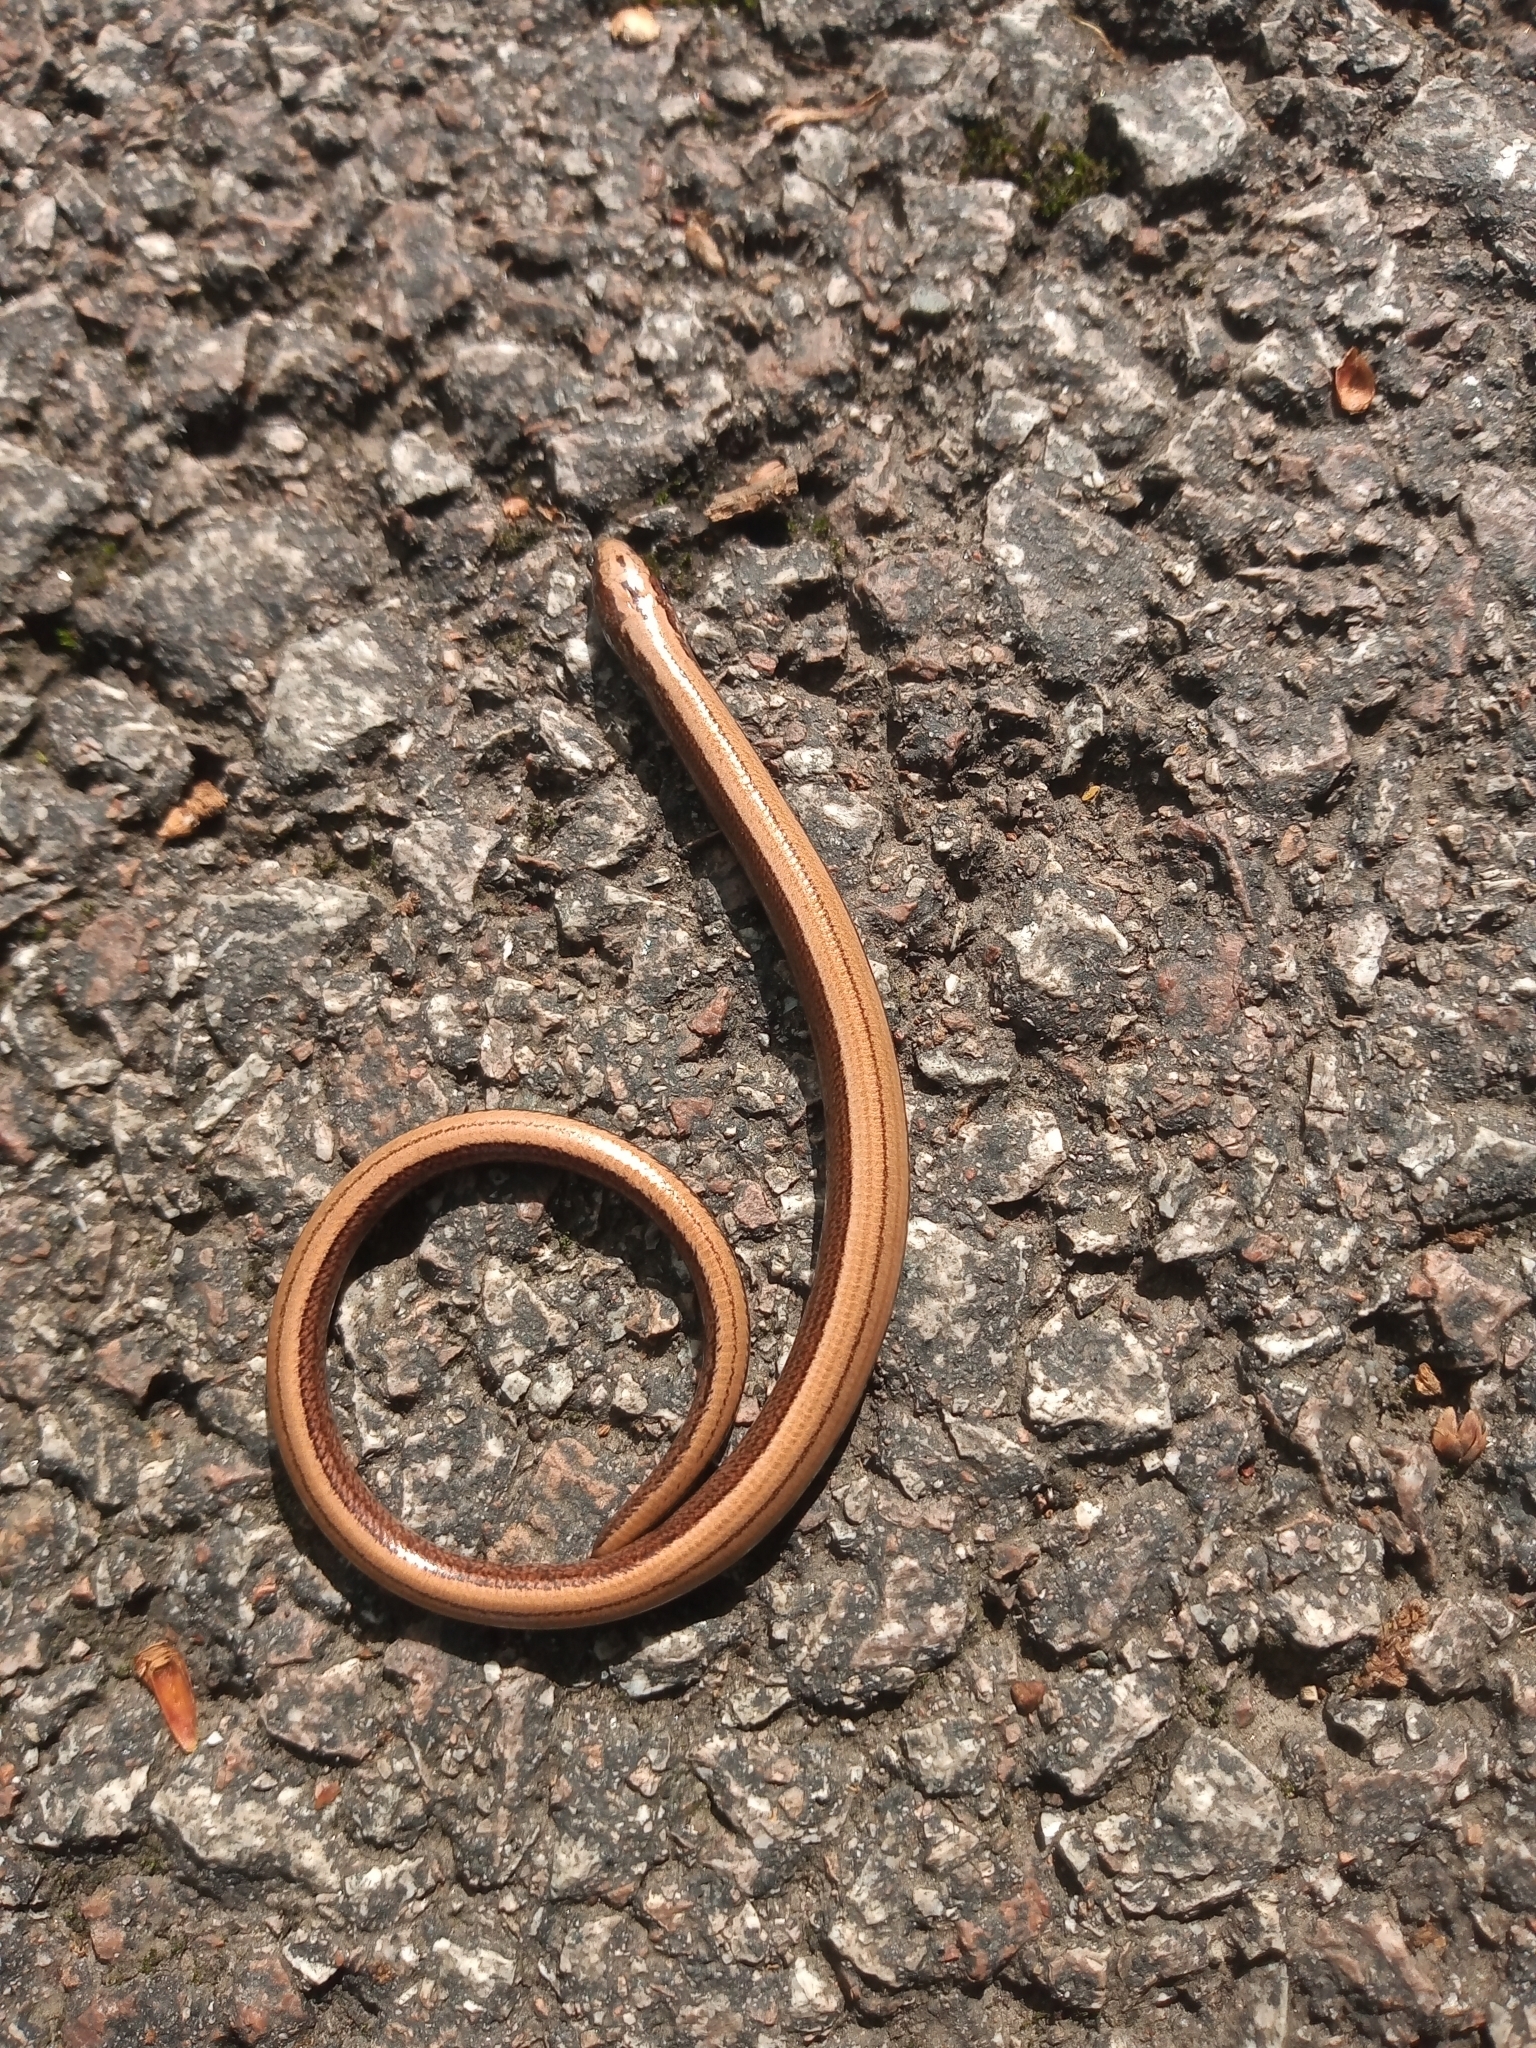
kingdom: Animalia
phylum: Chordata
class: Squamata
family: Anguidae
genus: Anguis
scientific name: Anguis fragilis
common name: Slow worm
